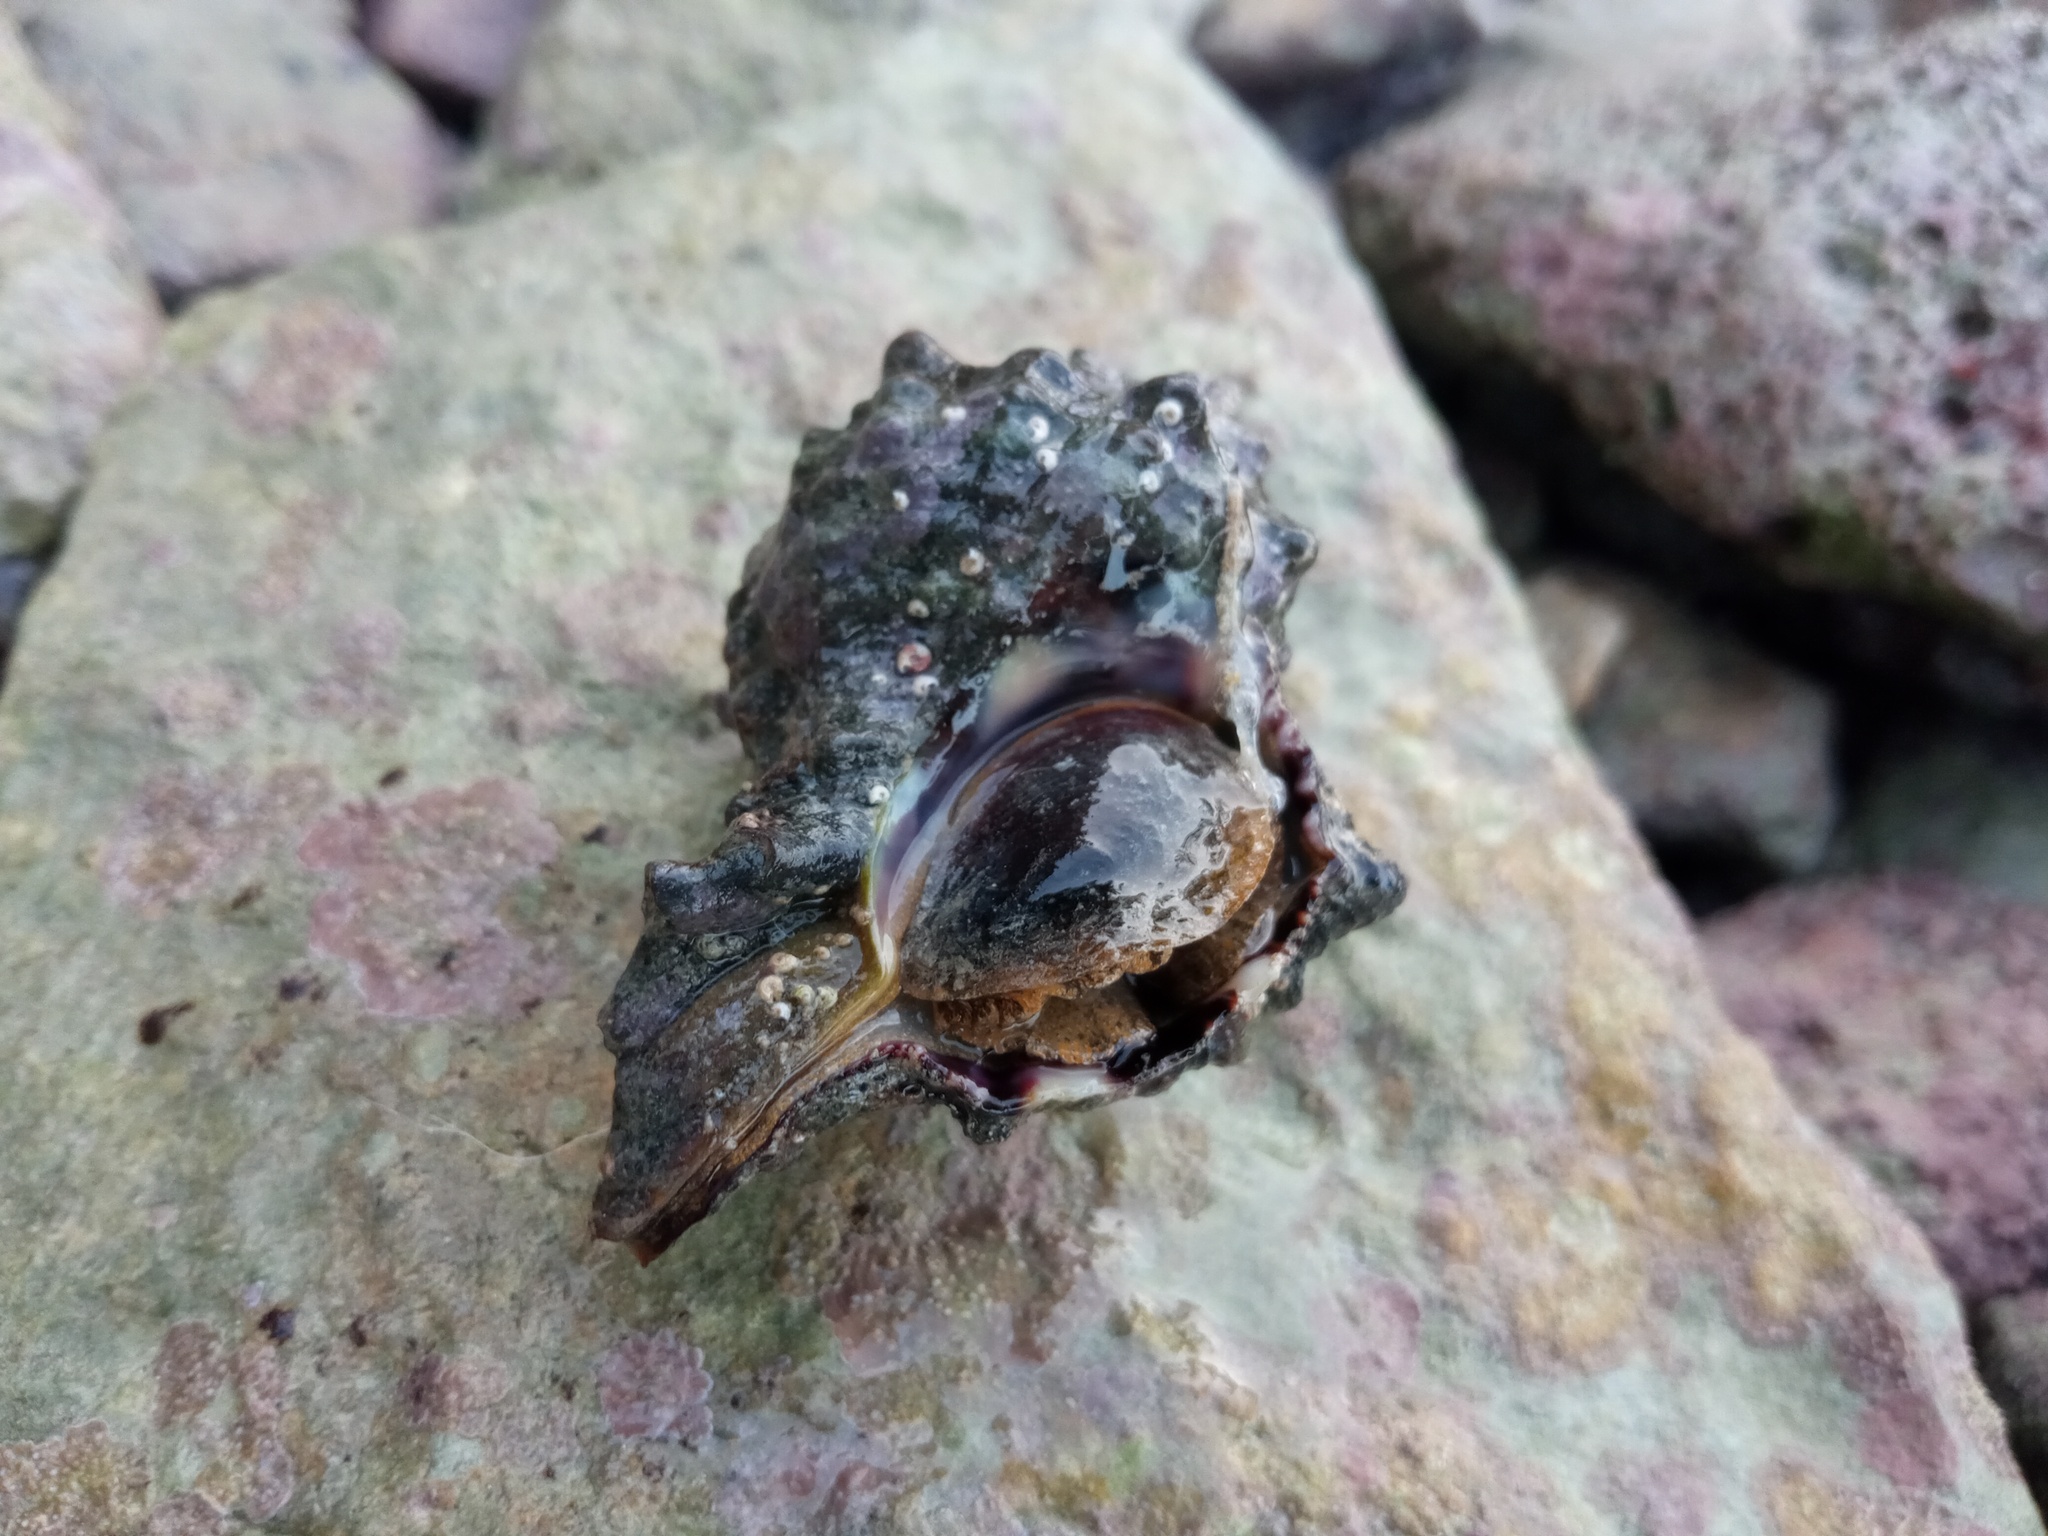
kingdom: Animalia
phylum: Mollusca
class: Gastropoda
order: Neogastropoda
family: Muricidae
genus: Hexaplex
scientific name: Hexaplex trunculus
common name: Banded dye-murex
